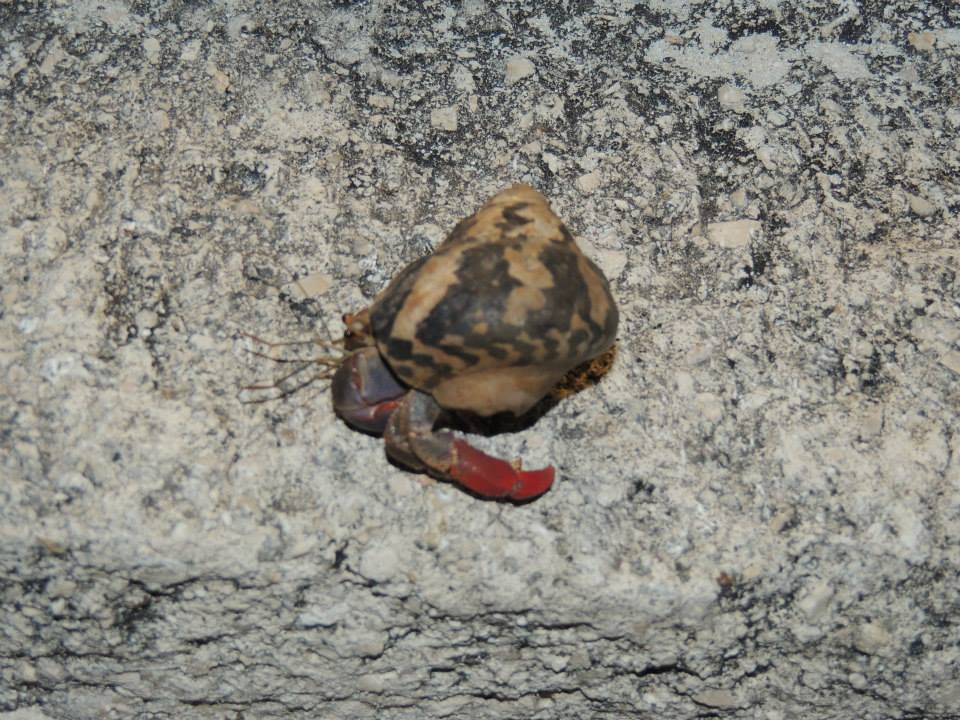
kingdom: Animalia
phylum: Arthropoda
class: Malacostraca
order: Decapoda
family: Coenobitidae
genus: Coenobita
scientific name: Coenobita clypeatus
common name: Caribbean hermit crab
